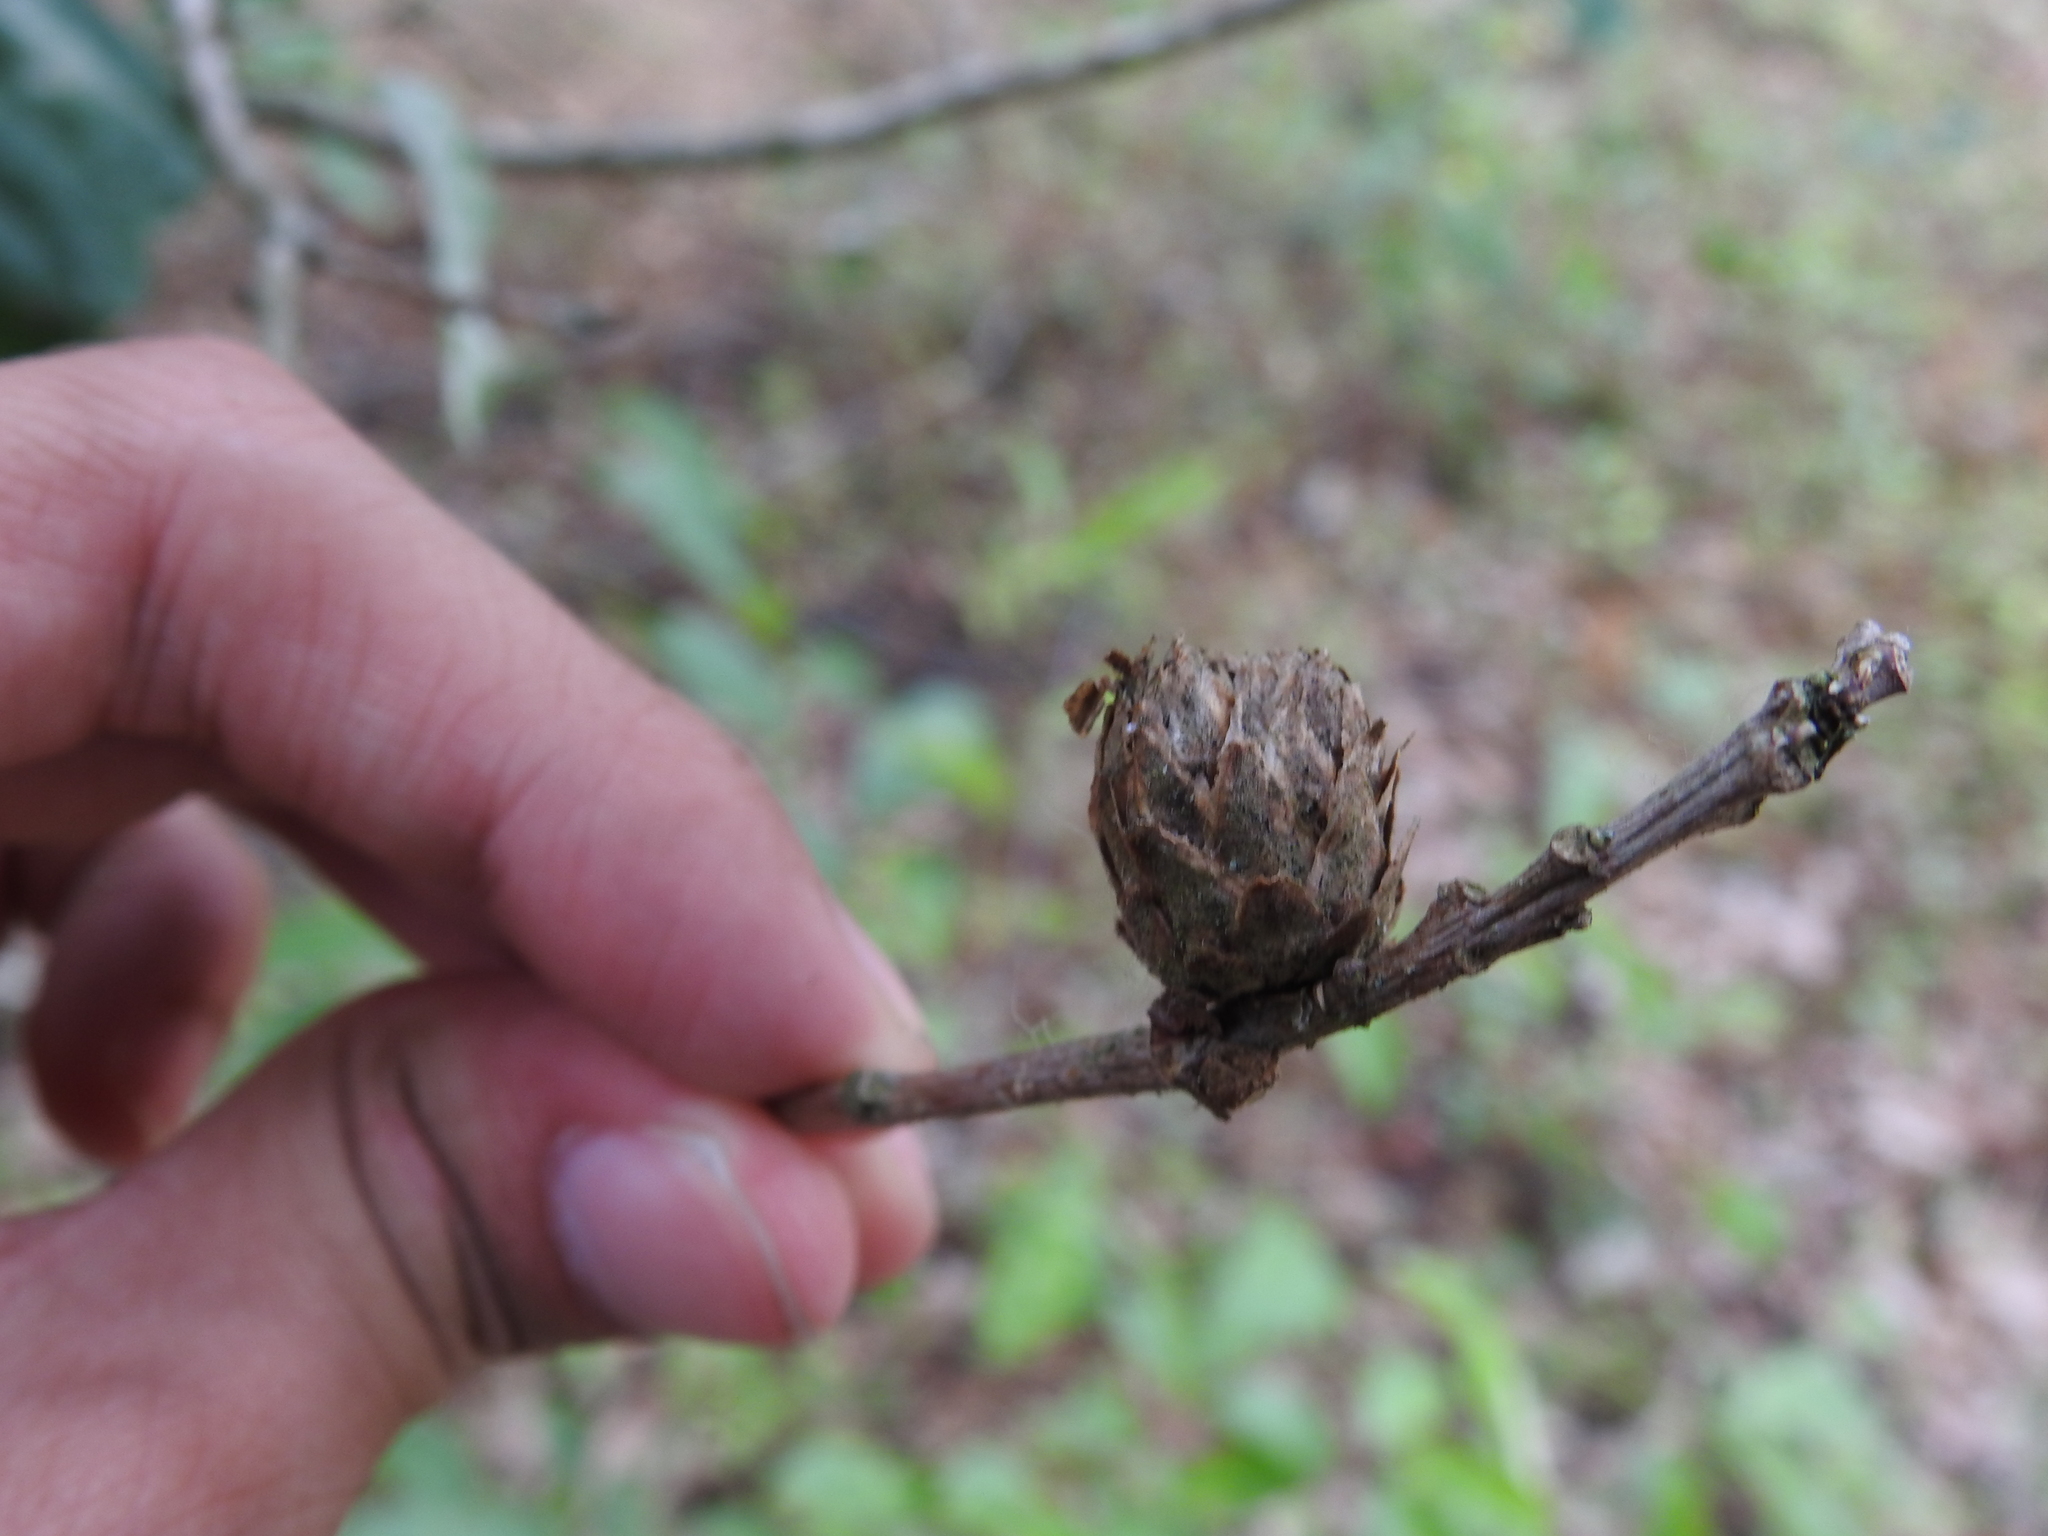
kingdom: Animalia
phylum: Arthropoda
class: Insecta
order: Hymenoptera
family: Cynipidae
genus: Andricus
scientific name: Andricus foecundatrix
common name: Artichoke gall
